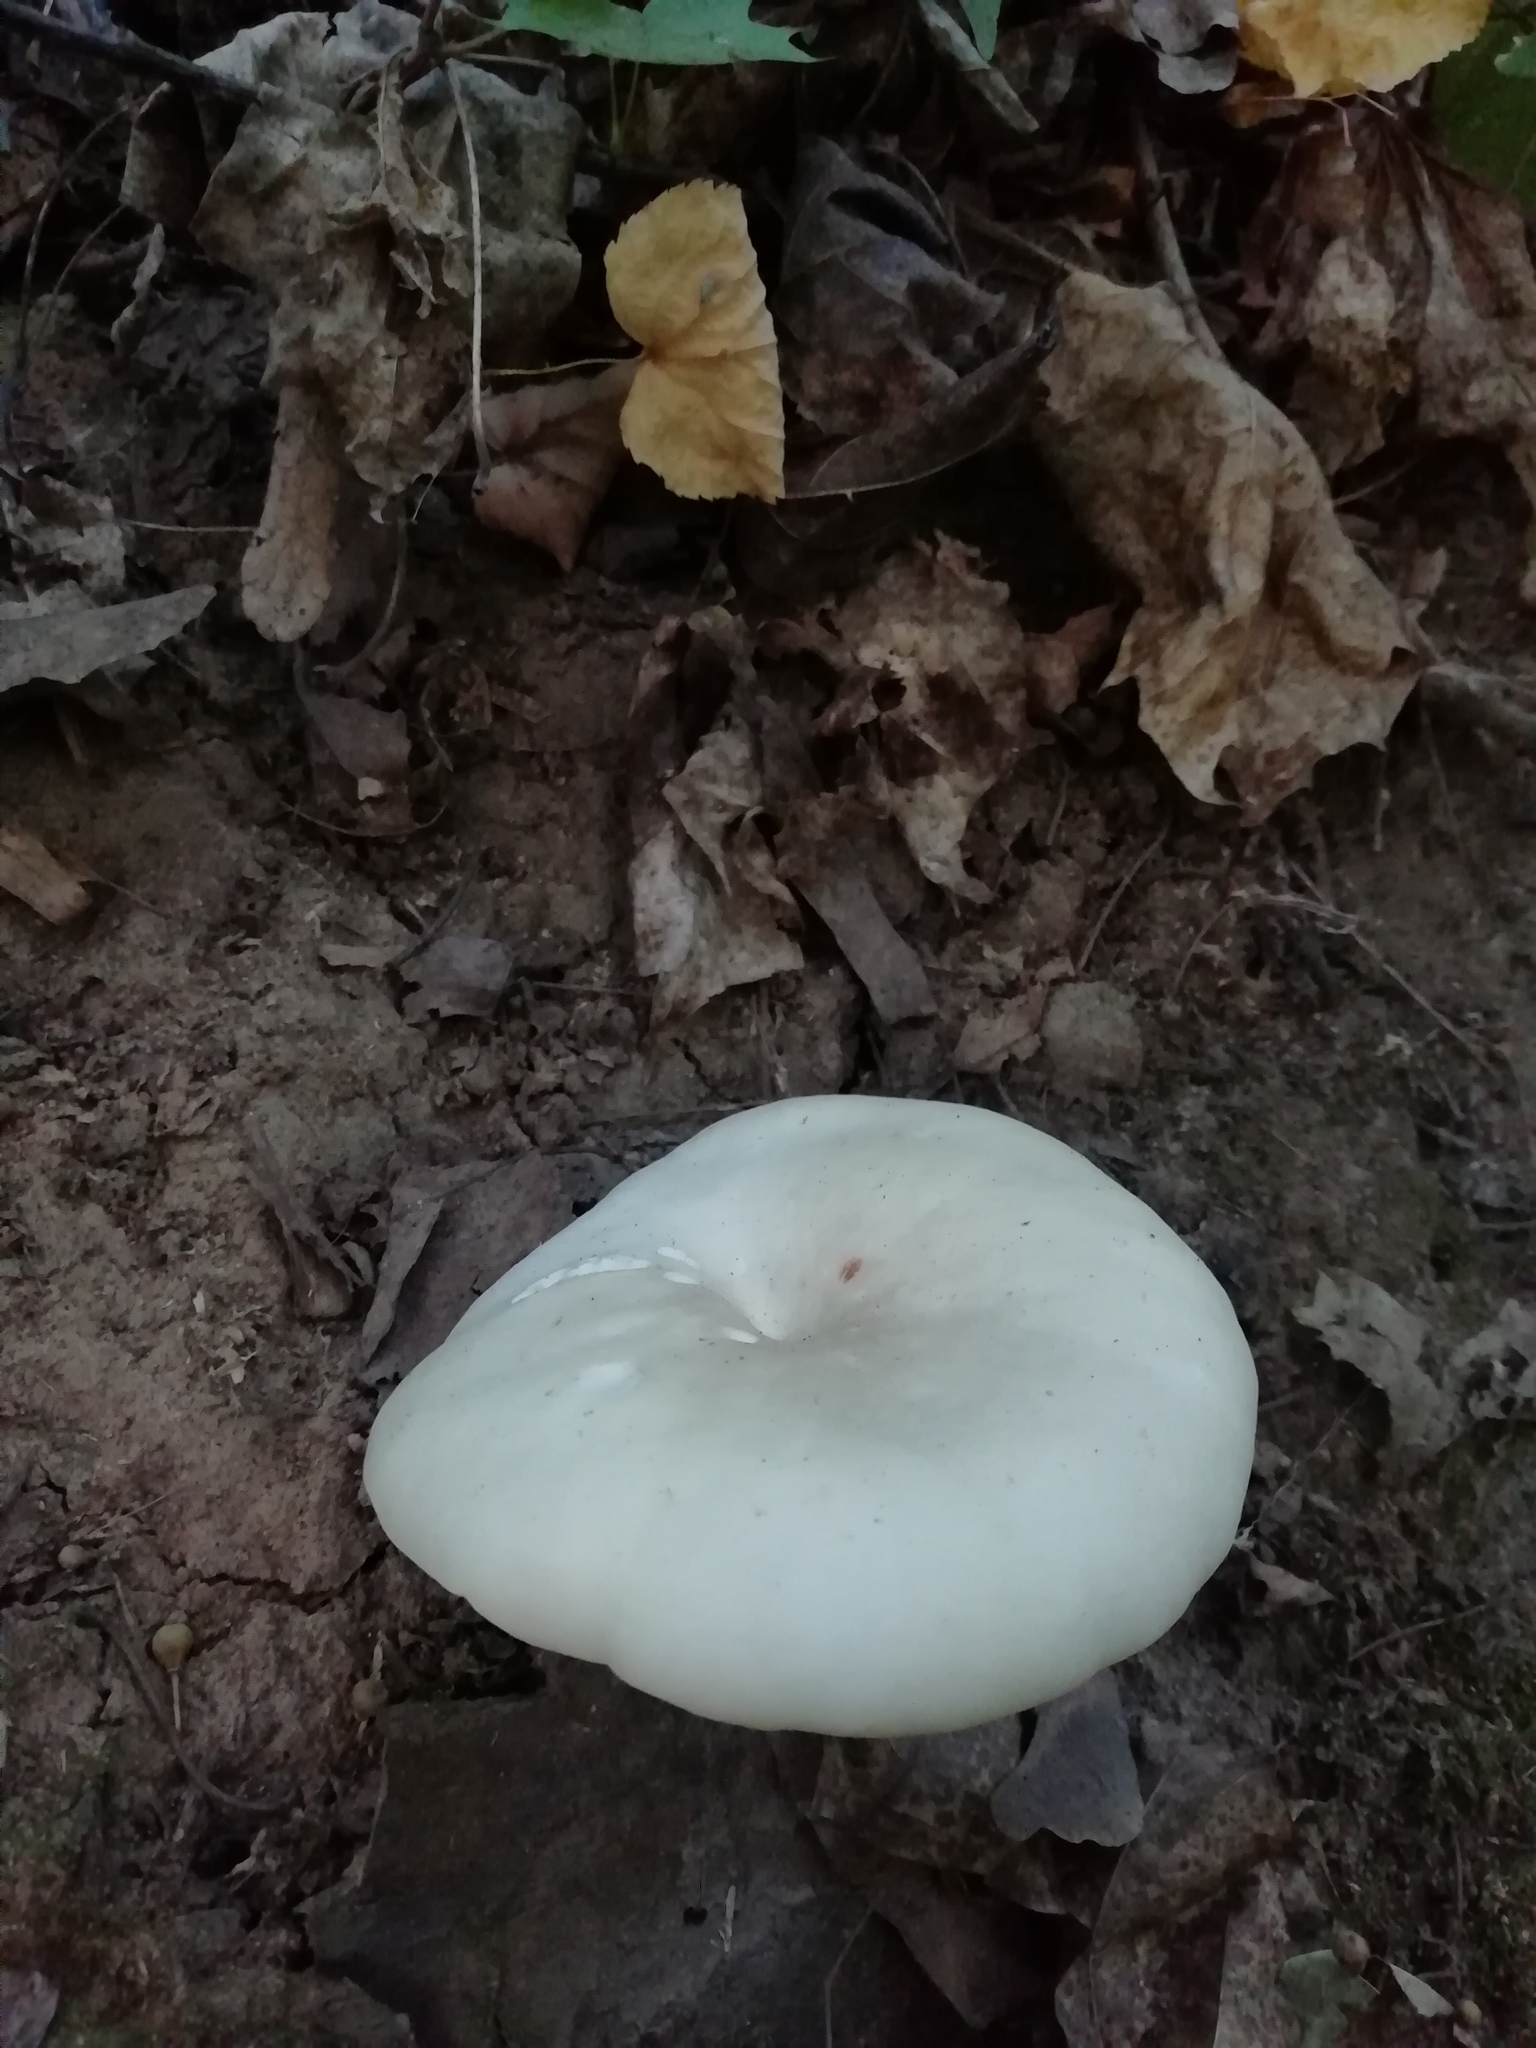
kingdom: Fungi
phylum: Basidiomycota
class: Agaricomycetes
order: Agaricales
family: Pleurotaceae
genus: Pleurotus
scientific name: Pleurotus cornucopiae
